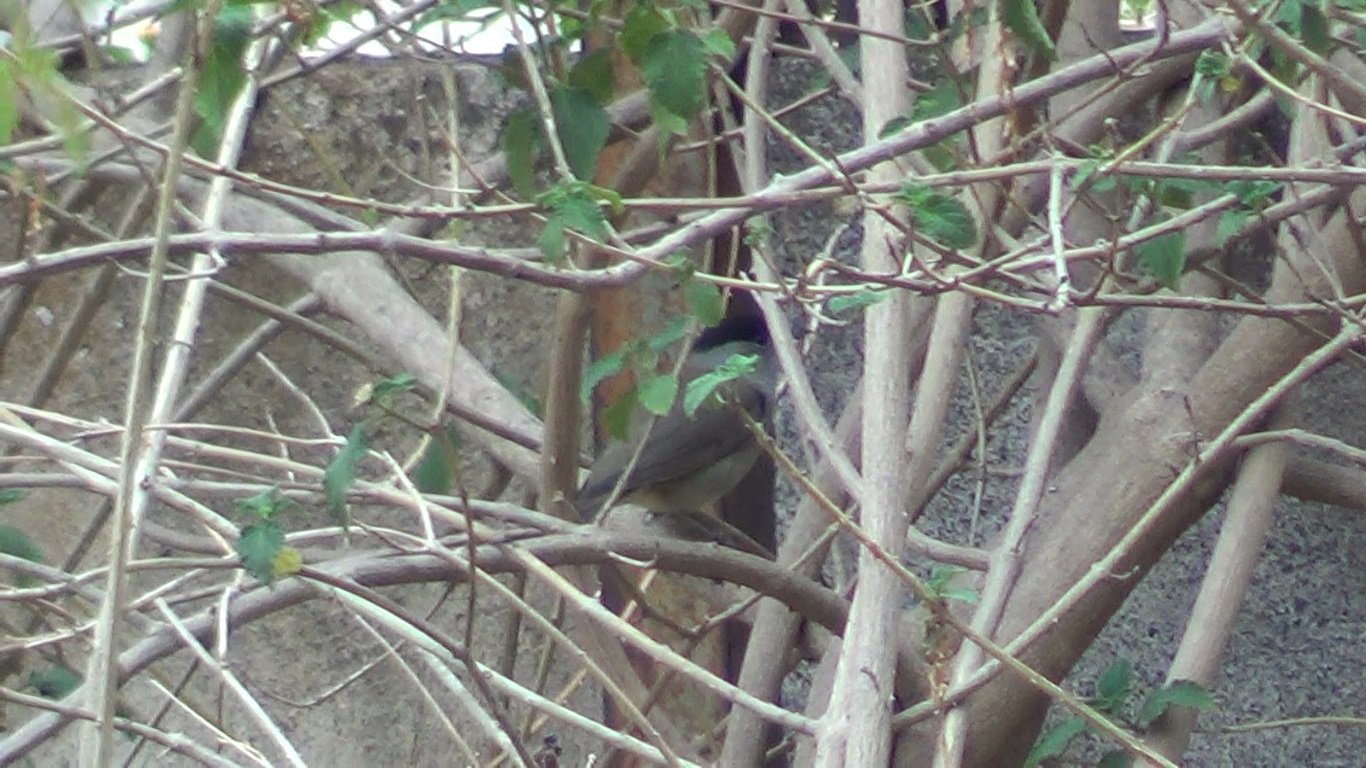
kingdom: Animalia
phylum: Chordata
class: Aves
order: Passeriformes
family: Sylviidae
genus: Sylvia
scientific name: Sylvia atricapilla
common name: Eurasian blackcap
